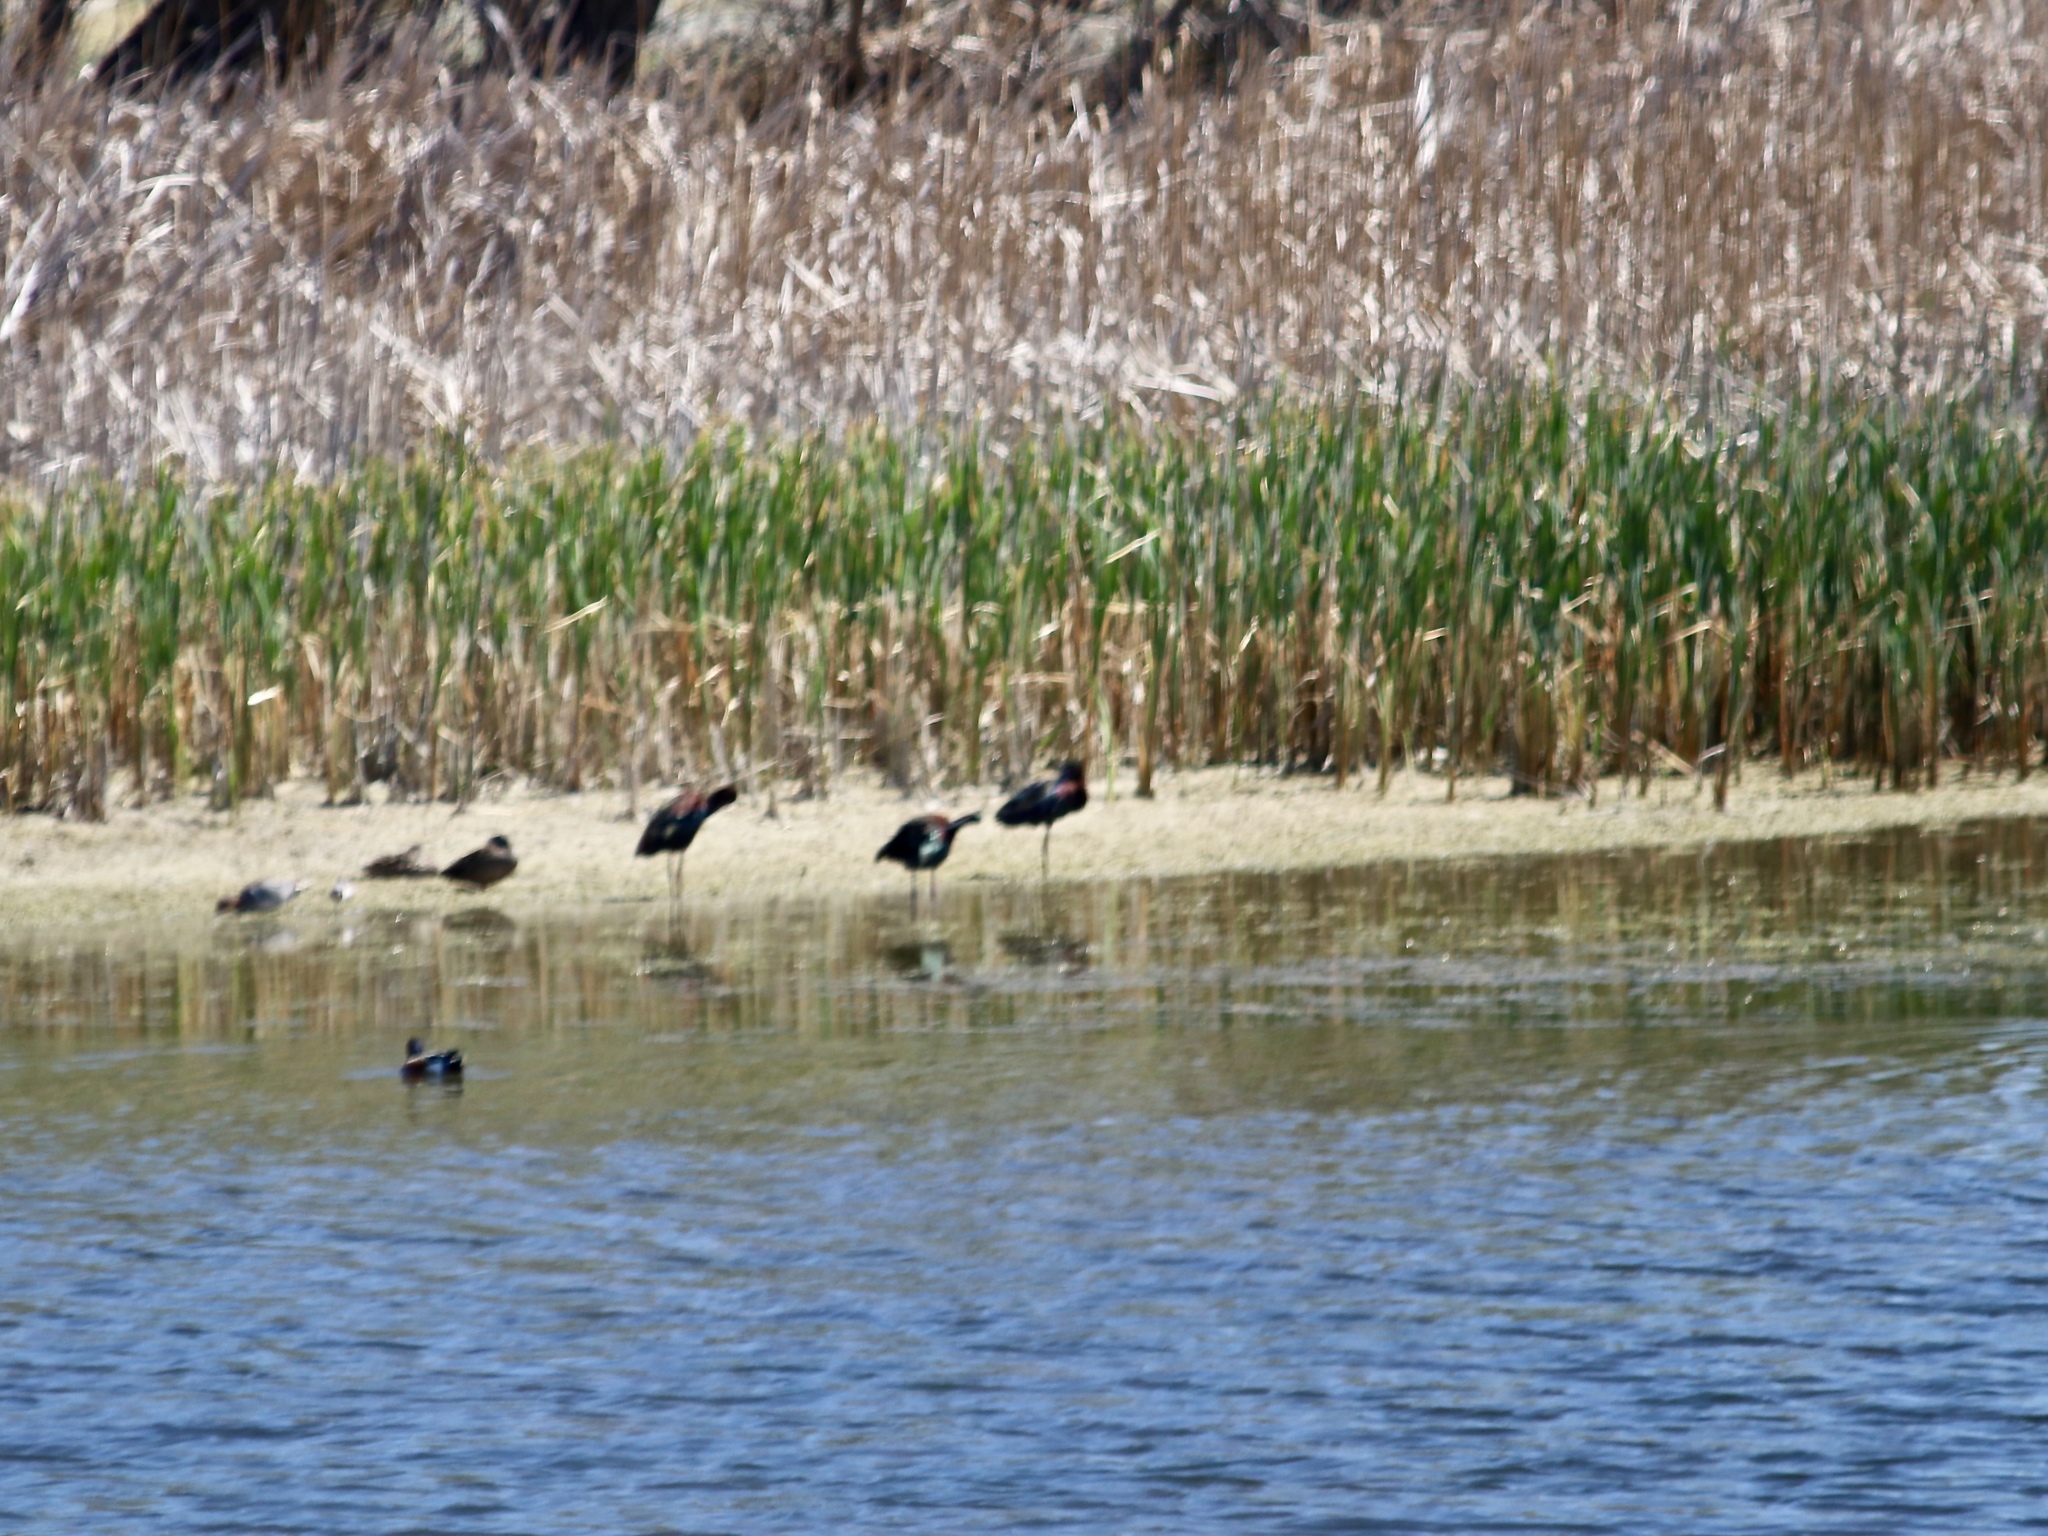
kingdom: Animalia
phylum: Chordata
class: Aves
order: Pelecaniformes
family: Threskiornithidae
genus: Plegadis
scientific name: Plegadis chihi
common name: White-faced ibis
